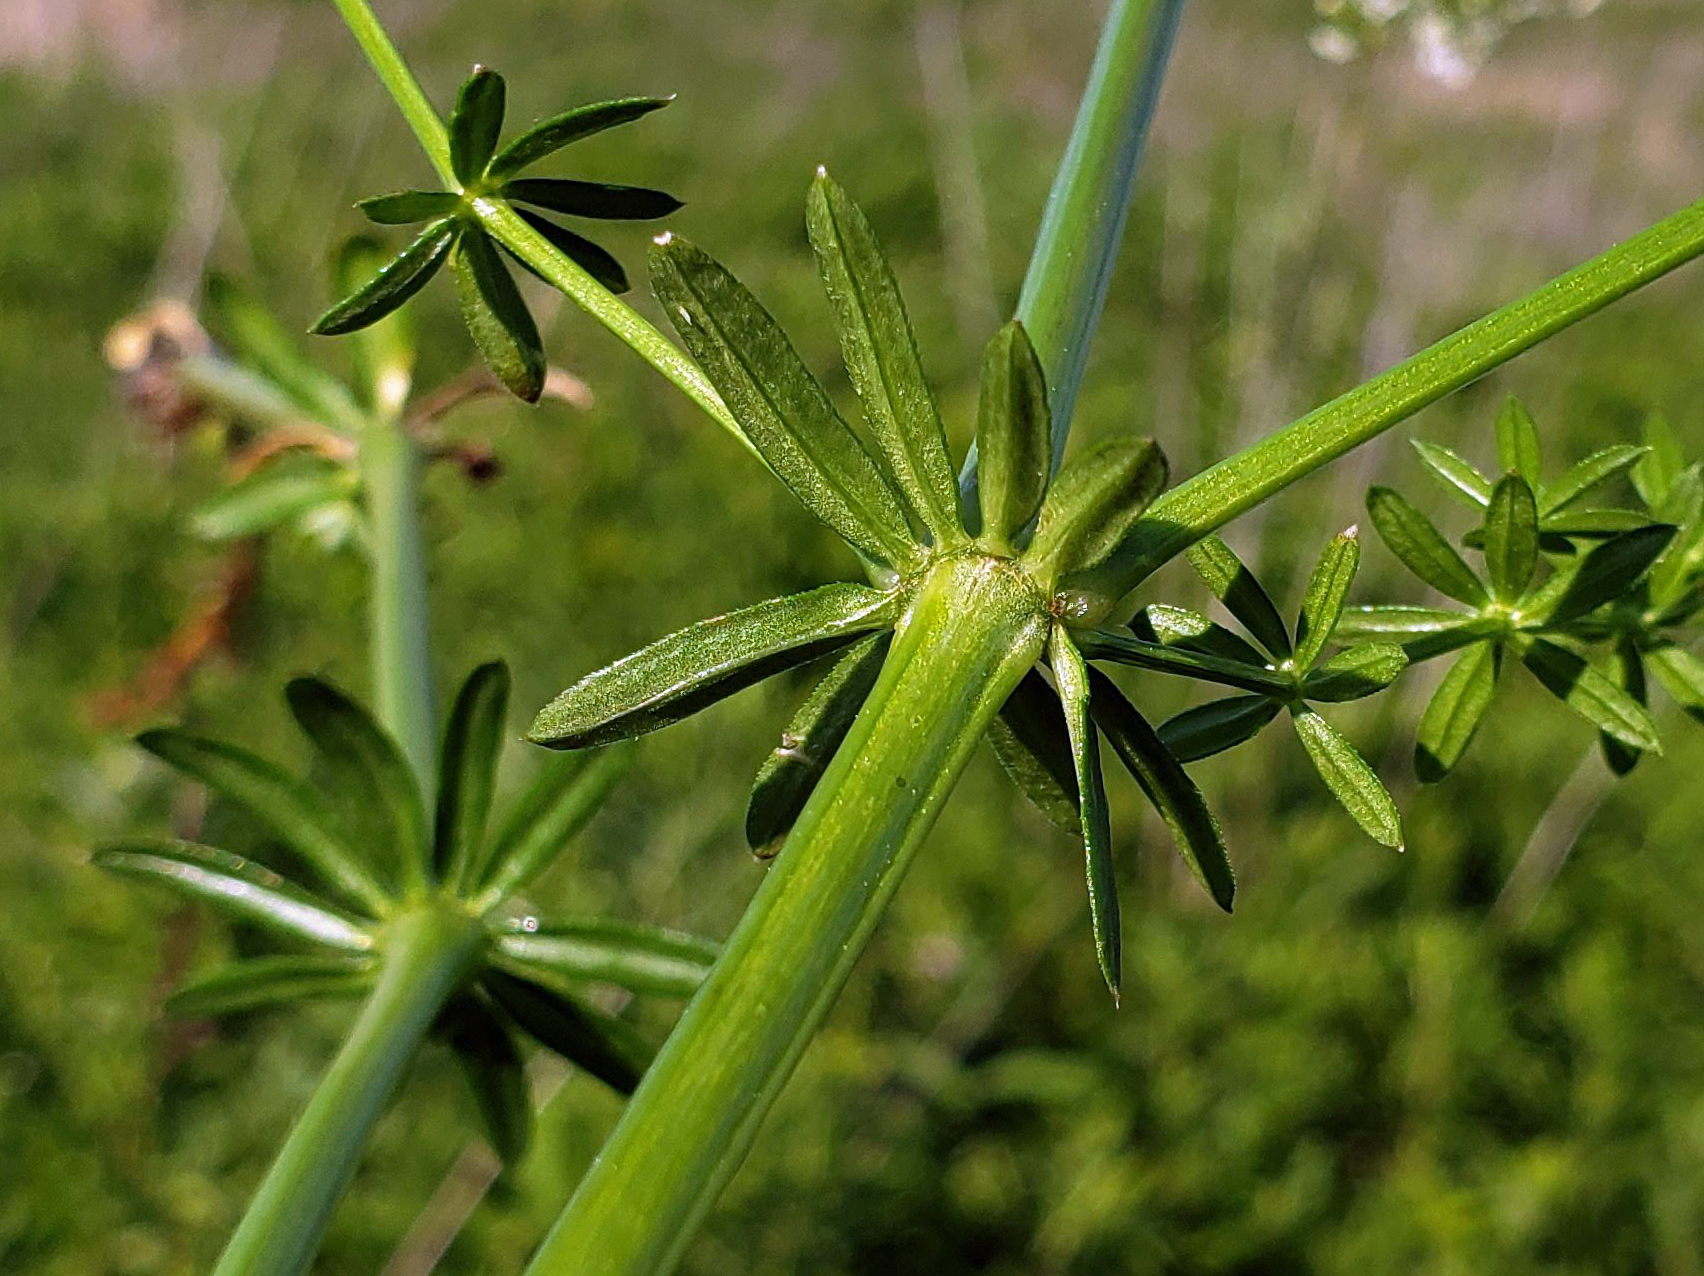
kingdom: Plantae
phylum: Tracheophyta
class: Magnoliopsida
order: Gentianales
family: Rubiaceae
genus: Galium
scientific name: Galium album
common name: White bedstraw
